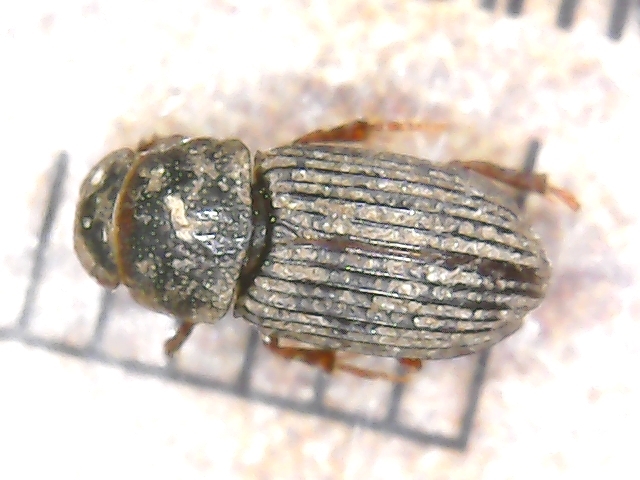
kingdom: Animalia
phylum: Arthropoda
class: Insecta
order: Coleoptera
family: Scarabaeidae
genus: Oxyomus
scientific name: Oxyomus sylvestris
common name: Forest small dung beetle
